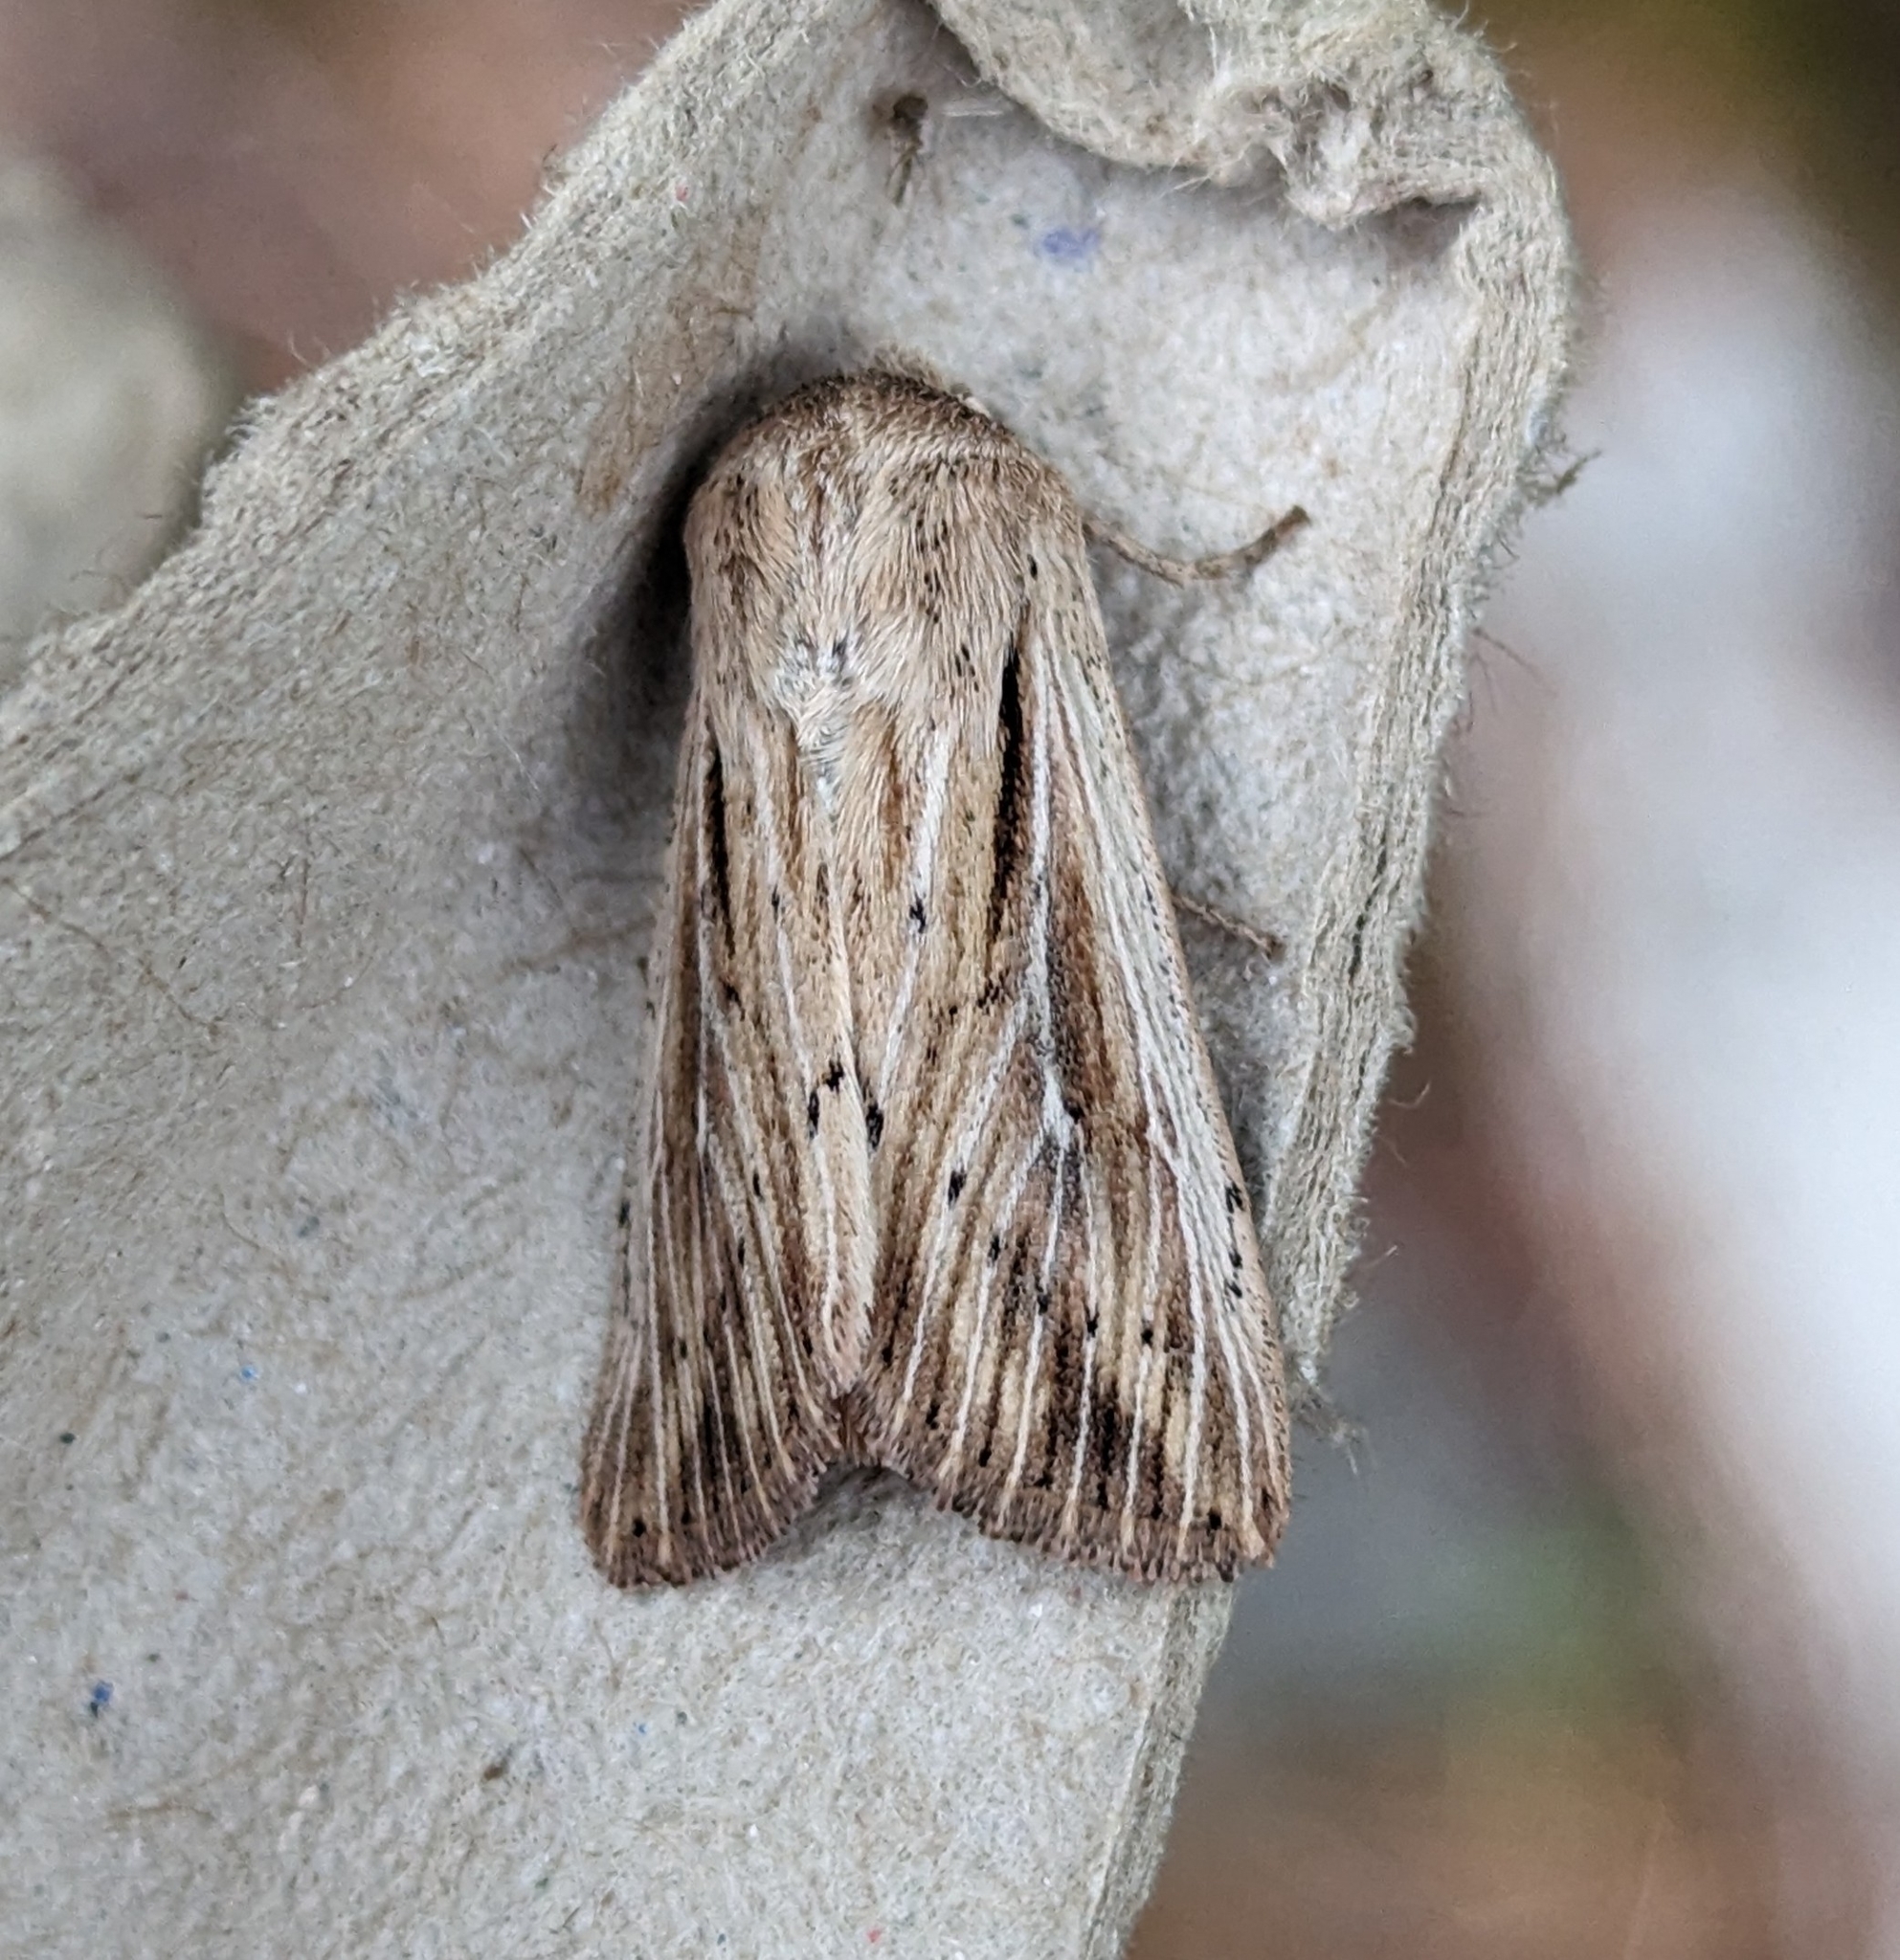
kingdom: Animalia
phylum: Arthropoda
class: Insecta
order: Lepidoptera
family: Noctuidae
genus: Leucania
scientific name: Leucania insueta
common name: Heterodox wainscot moth
